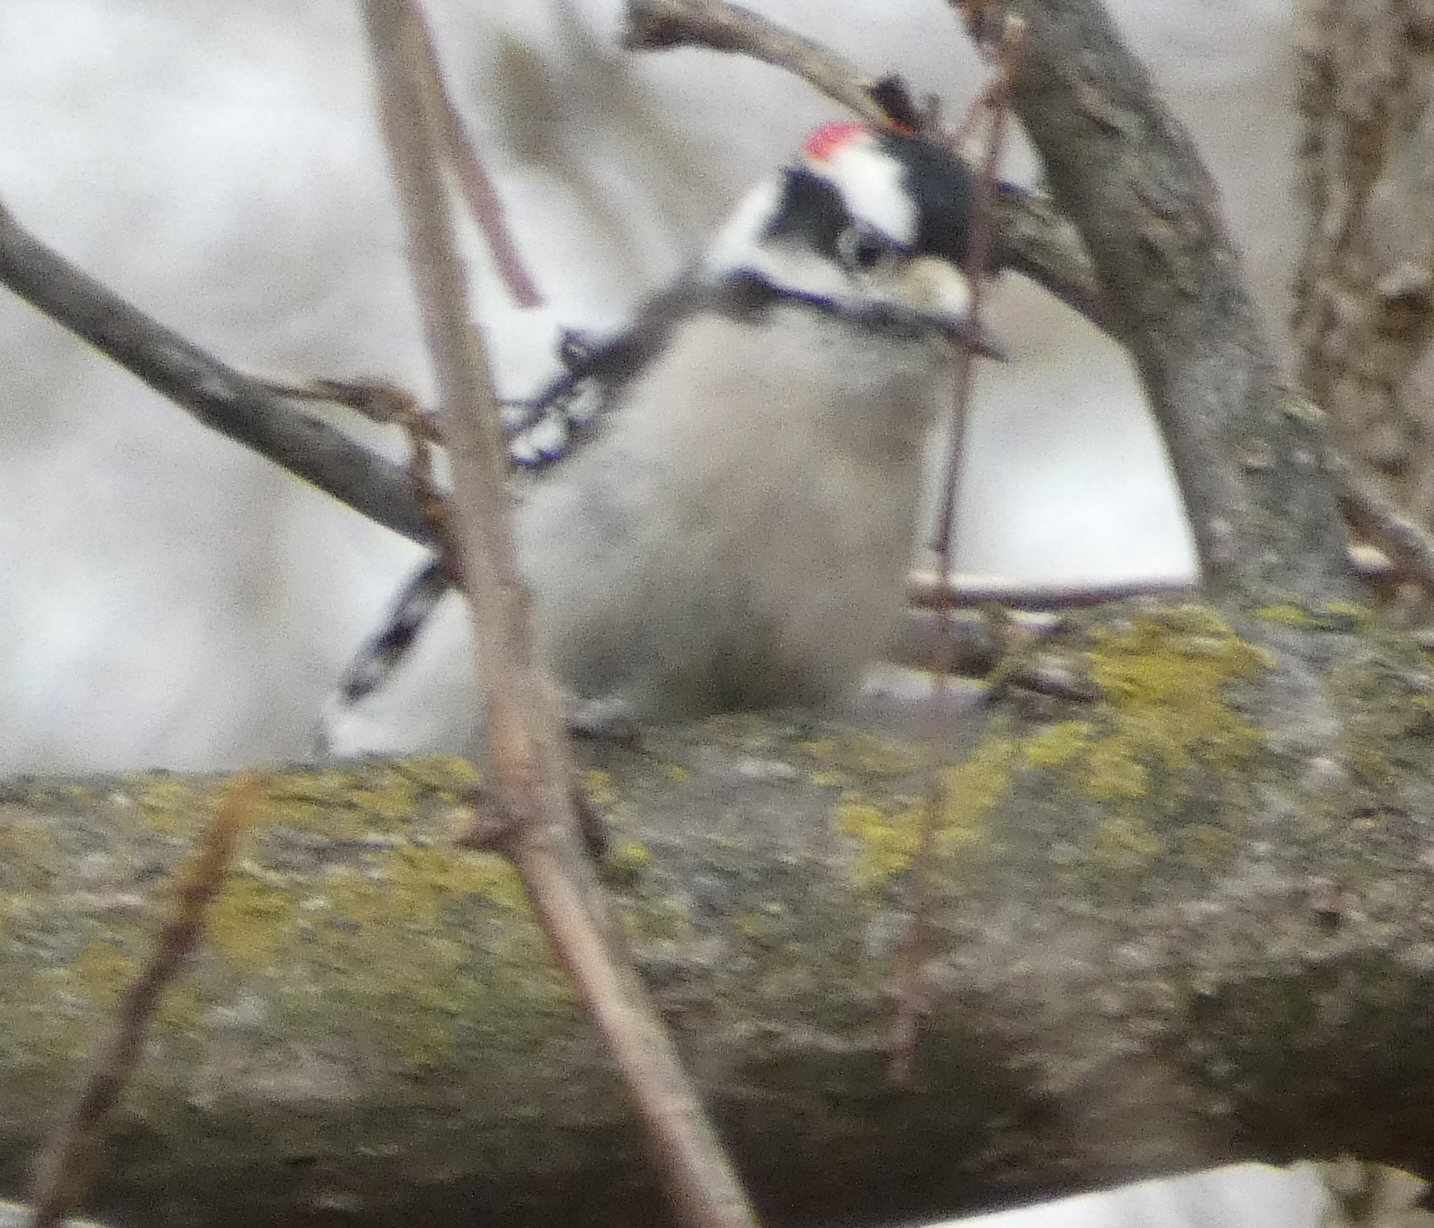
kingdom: Animalia
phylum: Chordata
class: Aves
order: Piciformes
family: Picidae
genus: Dryobates
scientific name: Dryobates pubescens
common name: Downy woodpecker
